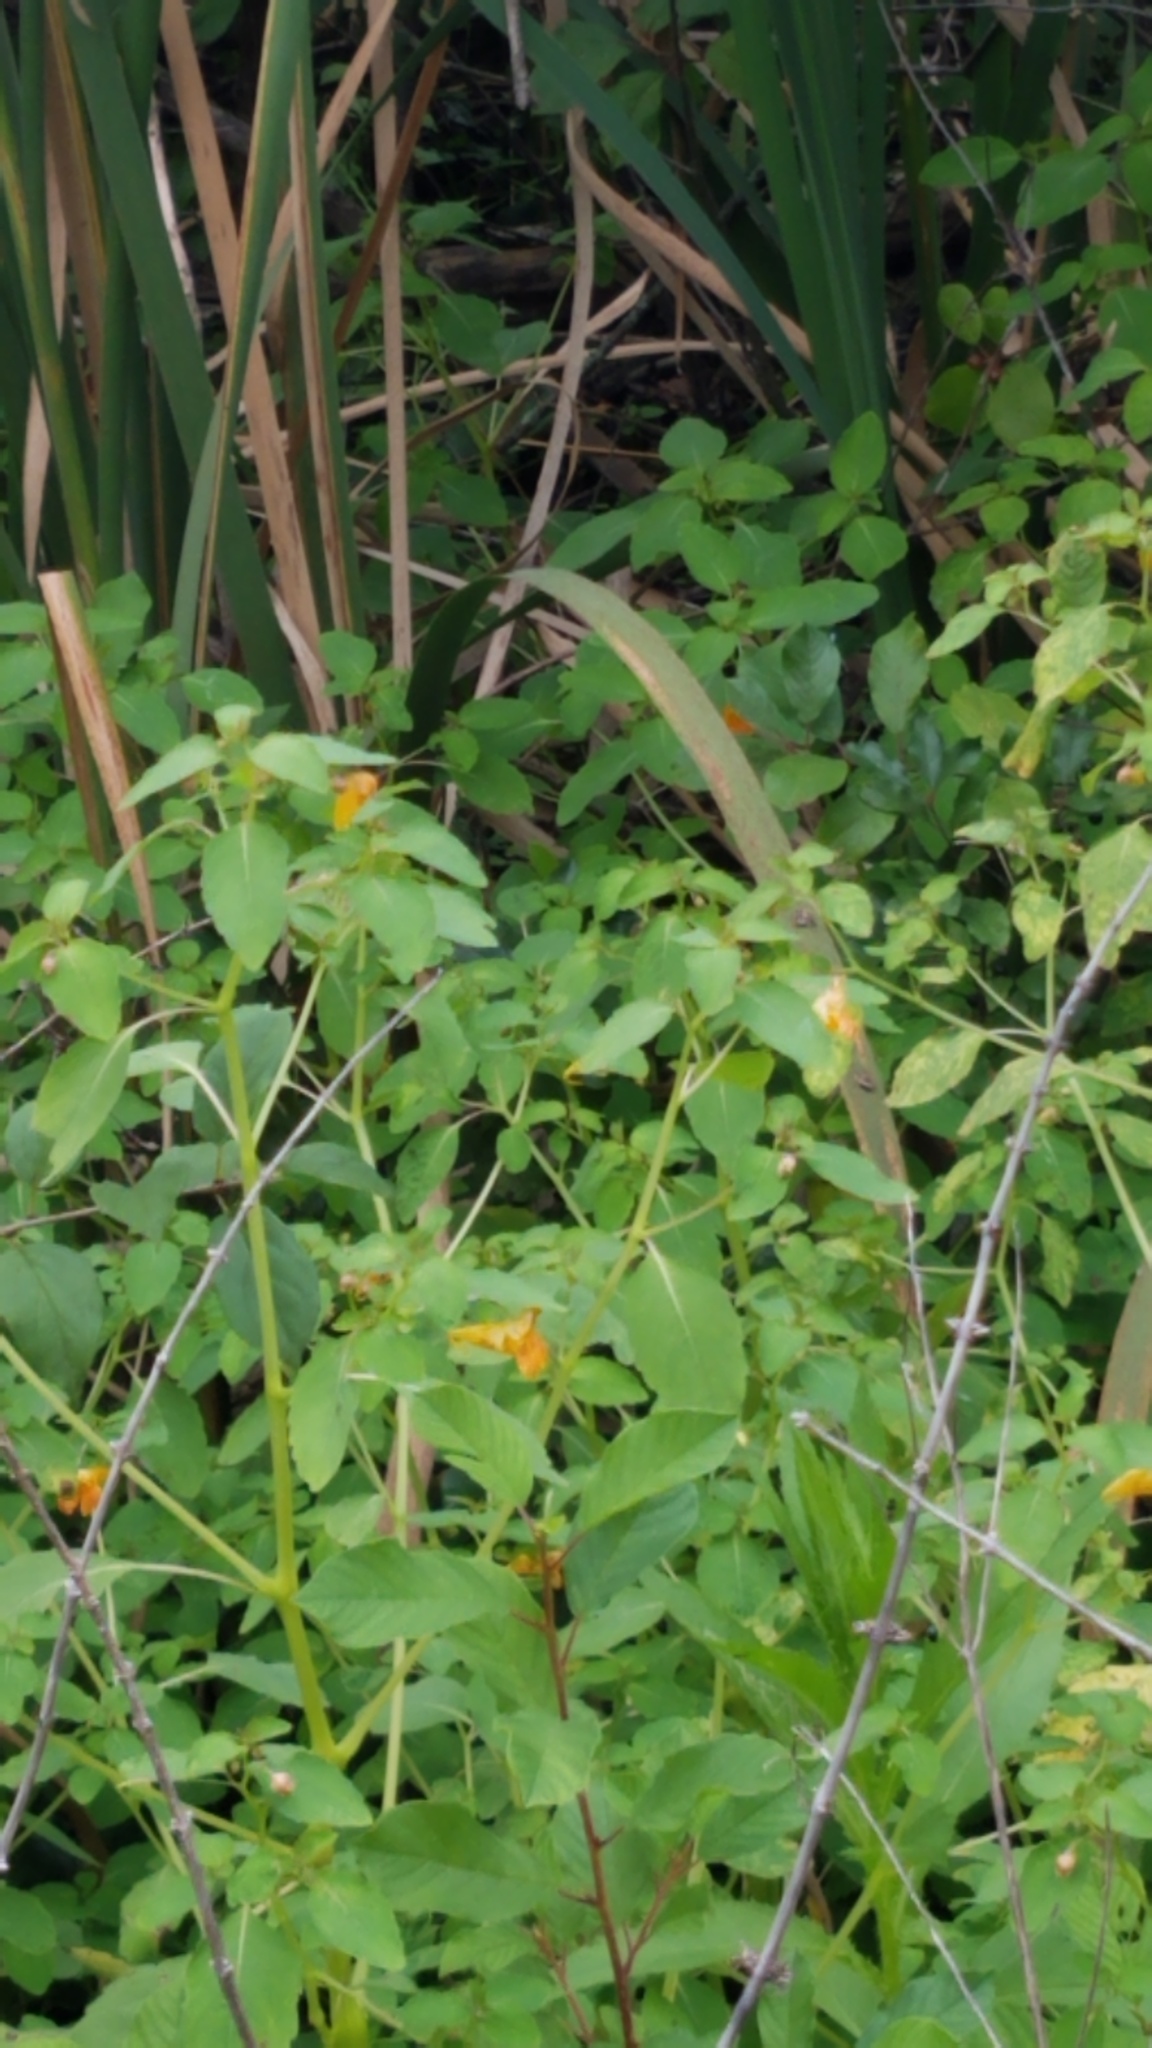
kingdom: Plantae
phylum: Tracheophyta
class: Magnoliopsida
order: Ericales
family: Balsaminaceae
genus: Impatiens
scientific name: Impatiens capensis
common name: Orange balsam
